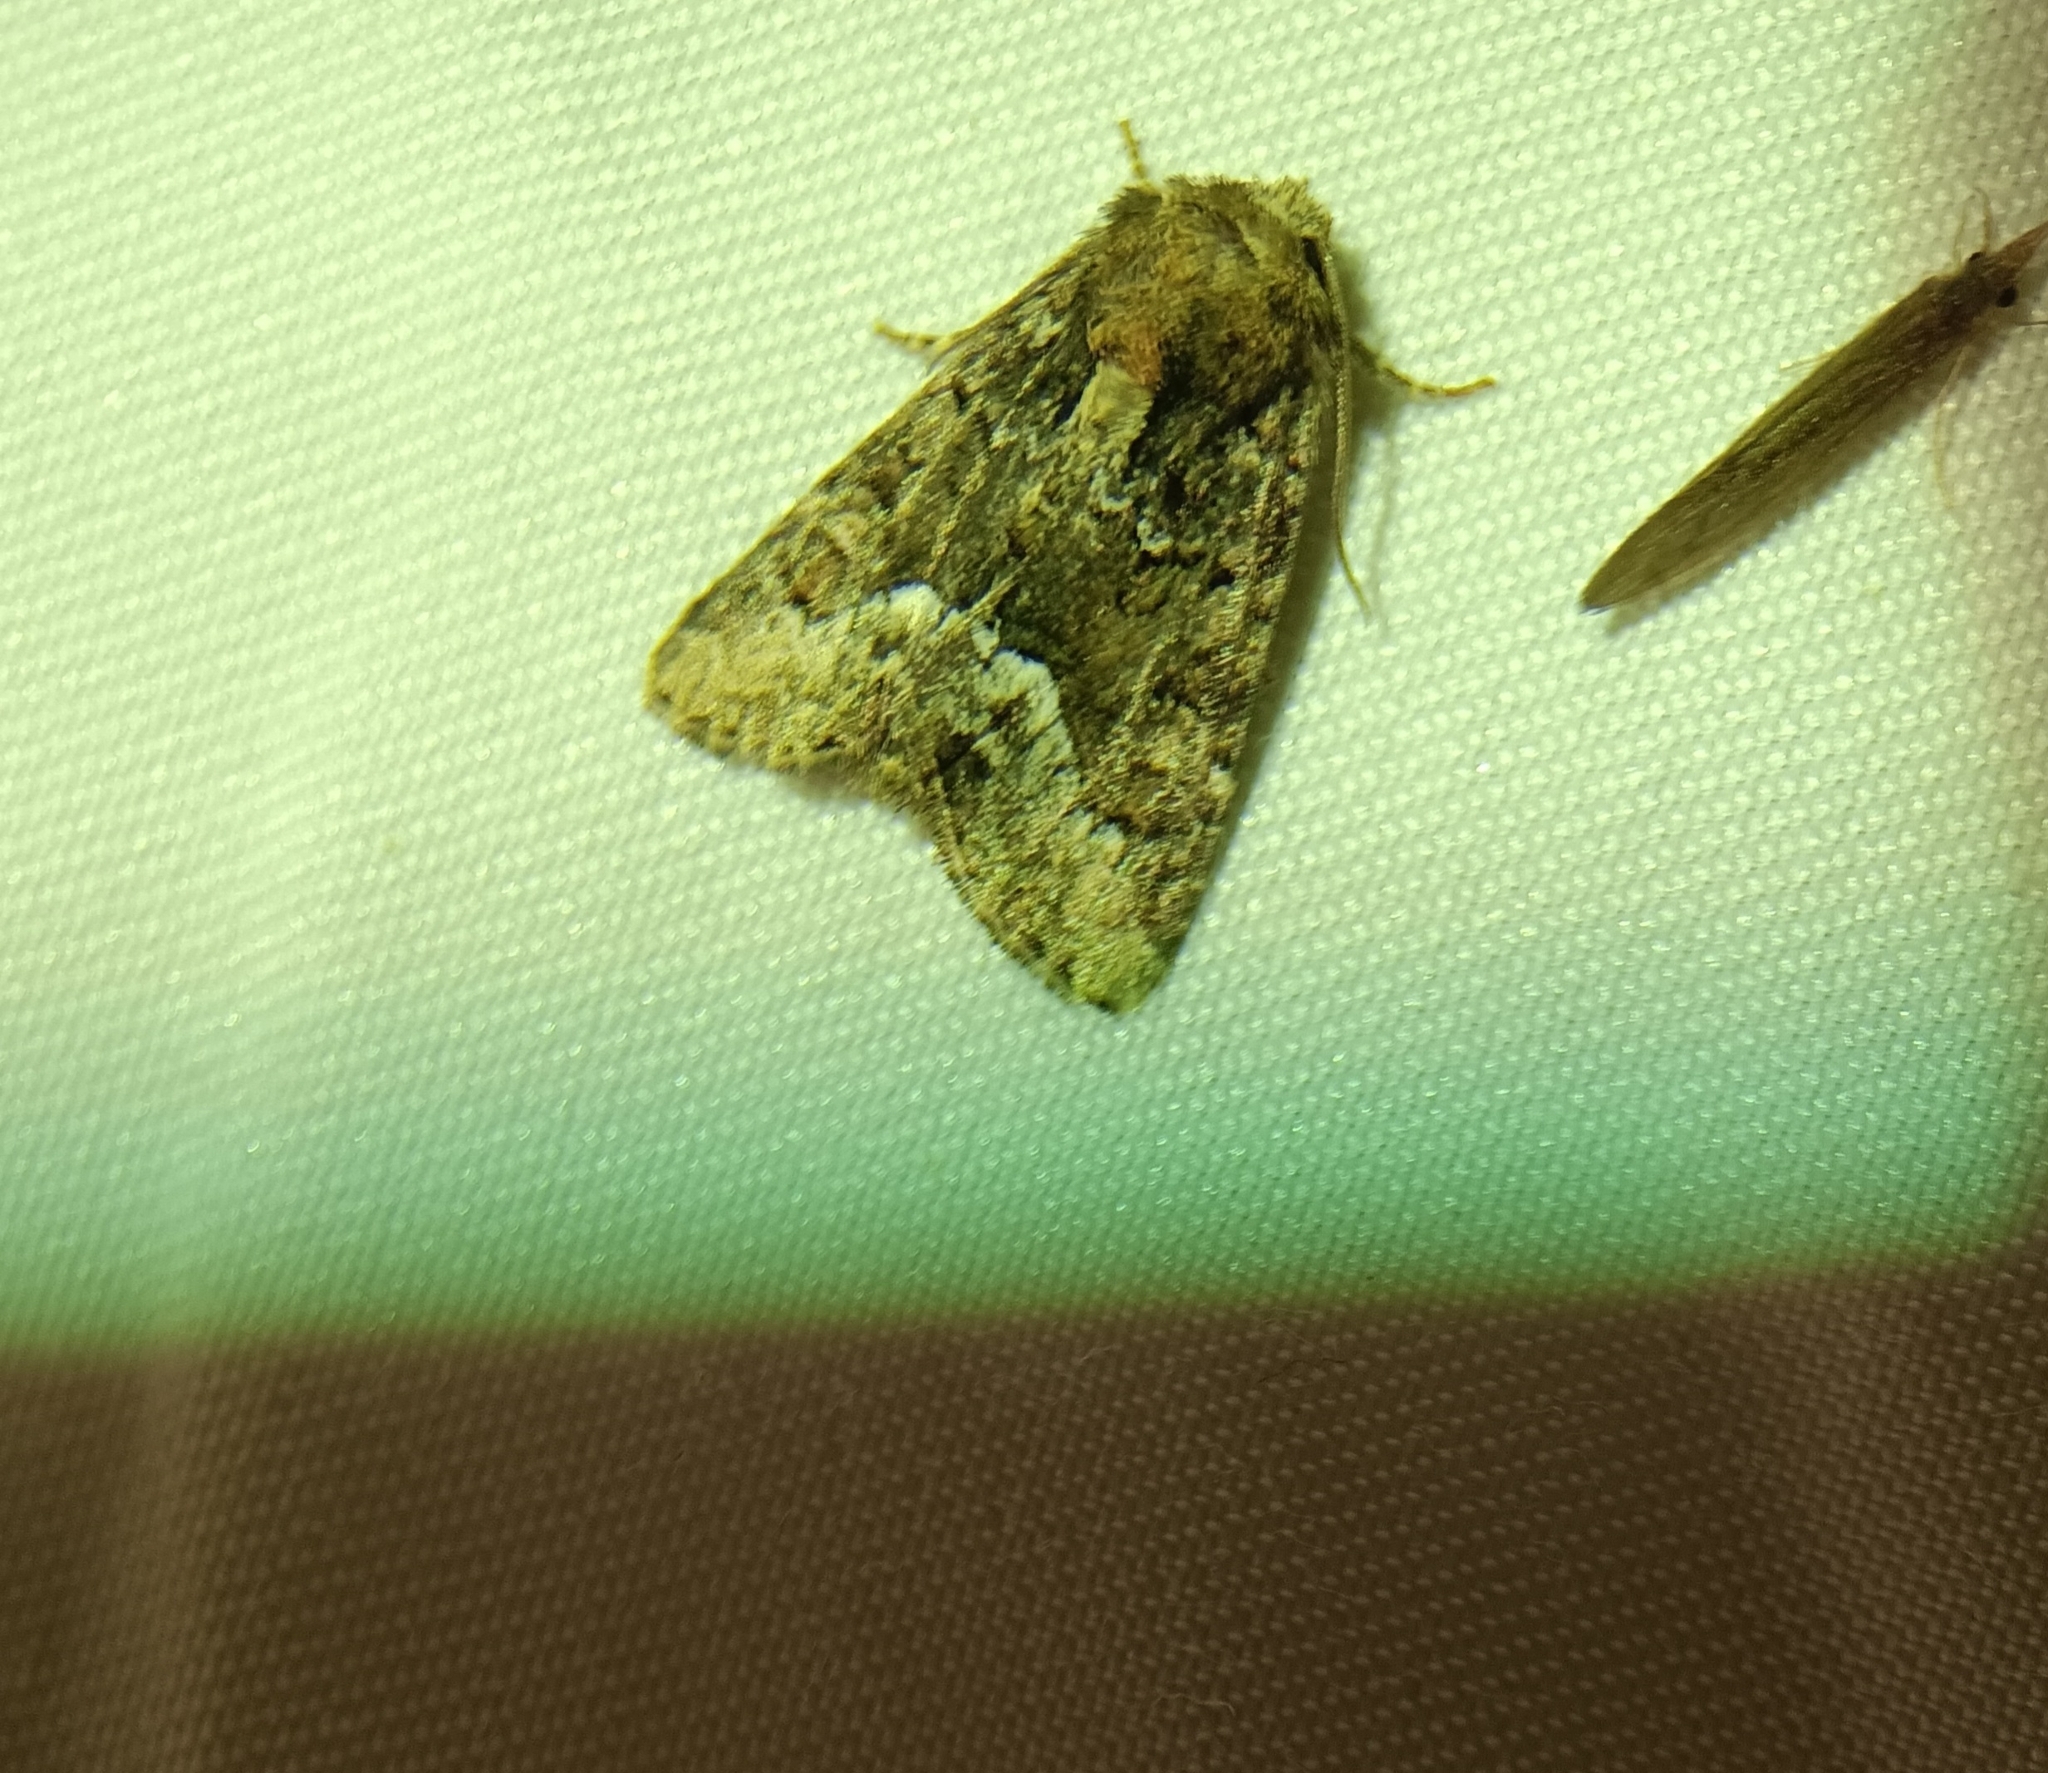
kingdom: Animalia
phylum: Arthropoda
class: Insecta
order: Lepidoptera
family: Noctuidae
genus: Oligia
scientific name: Oligia strigilis
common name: Marbled minor
